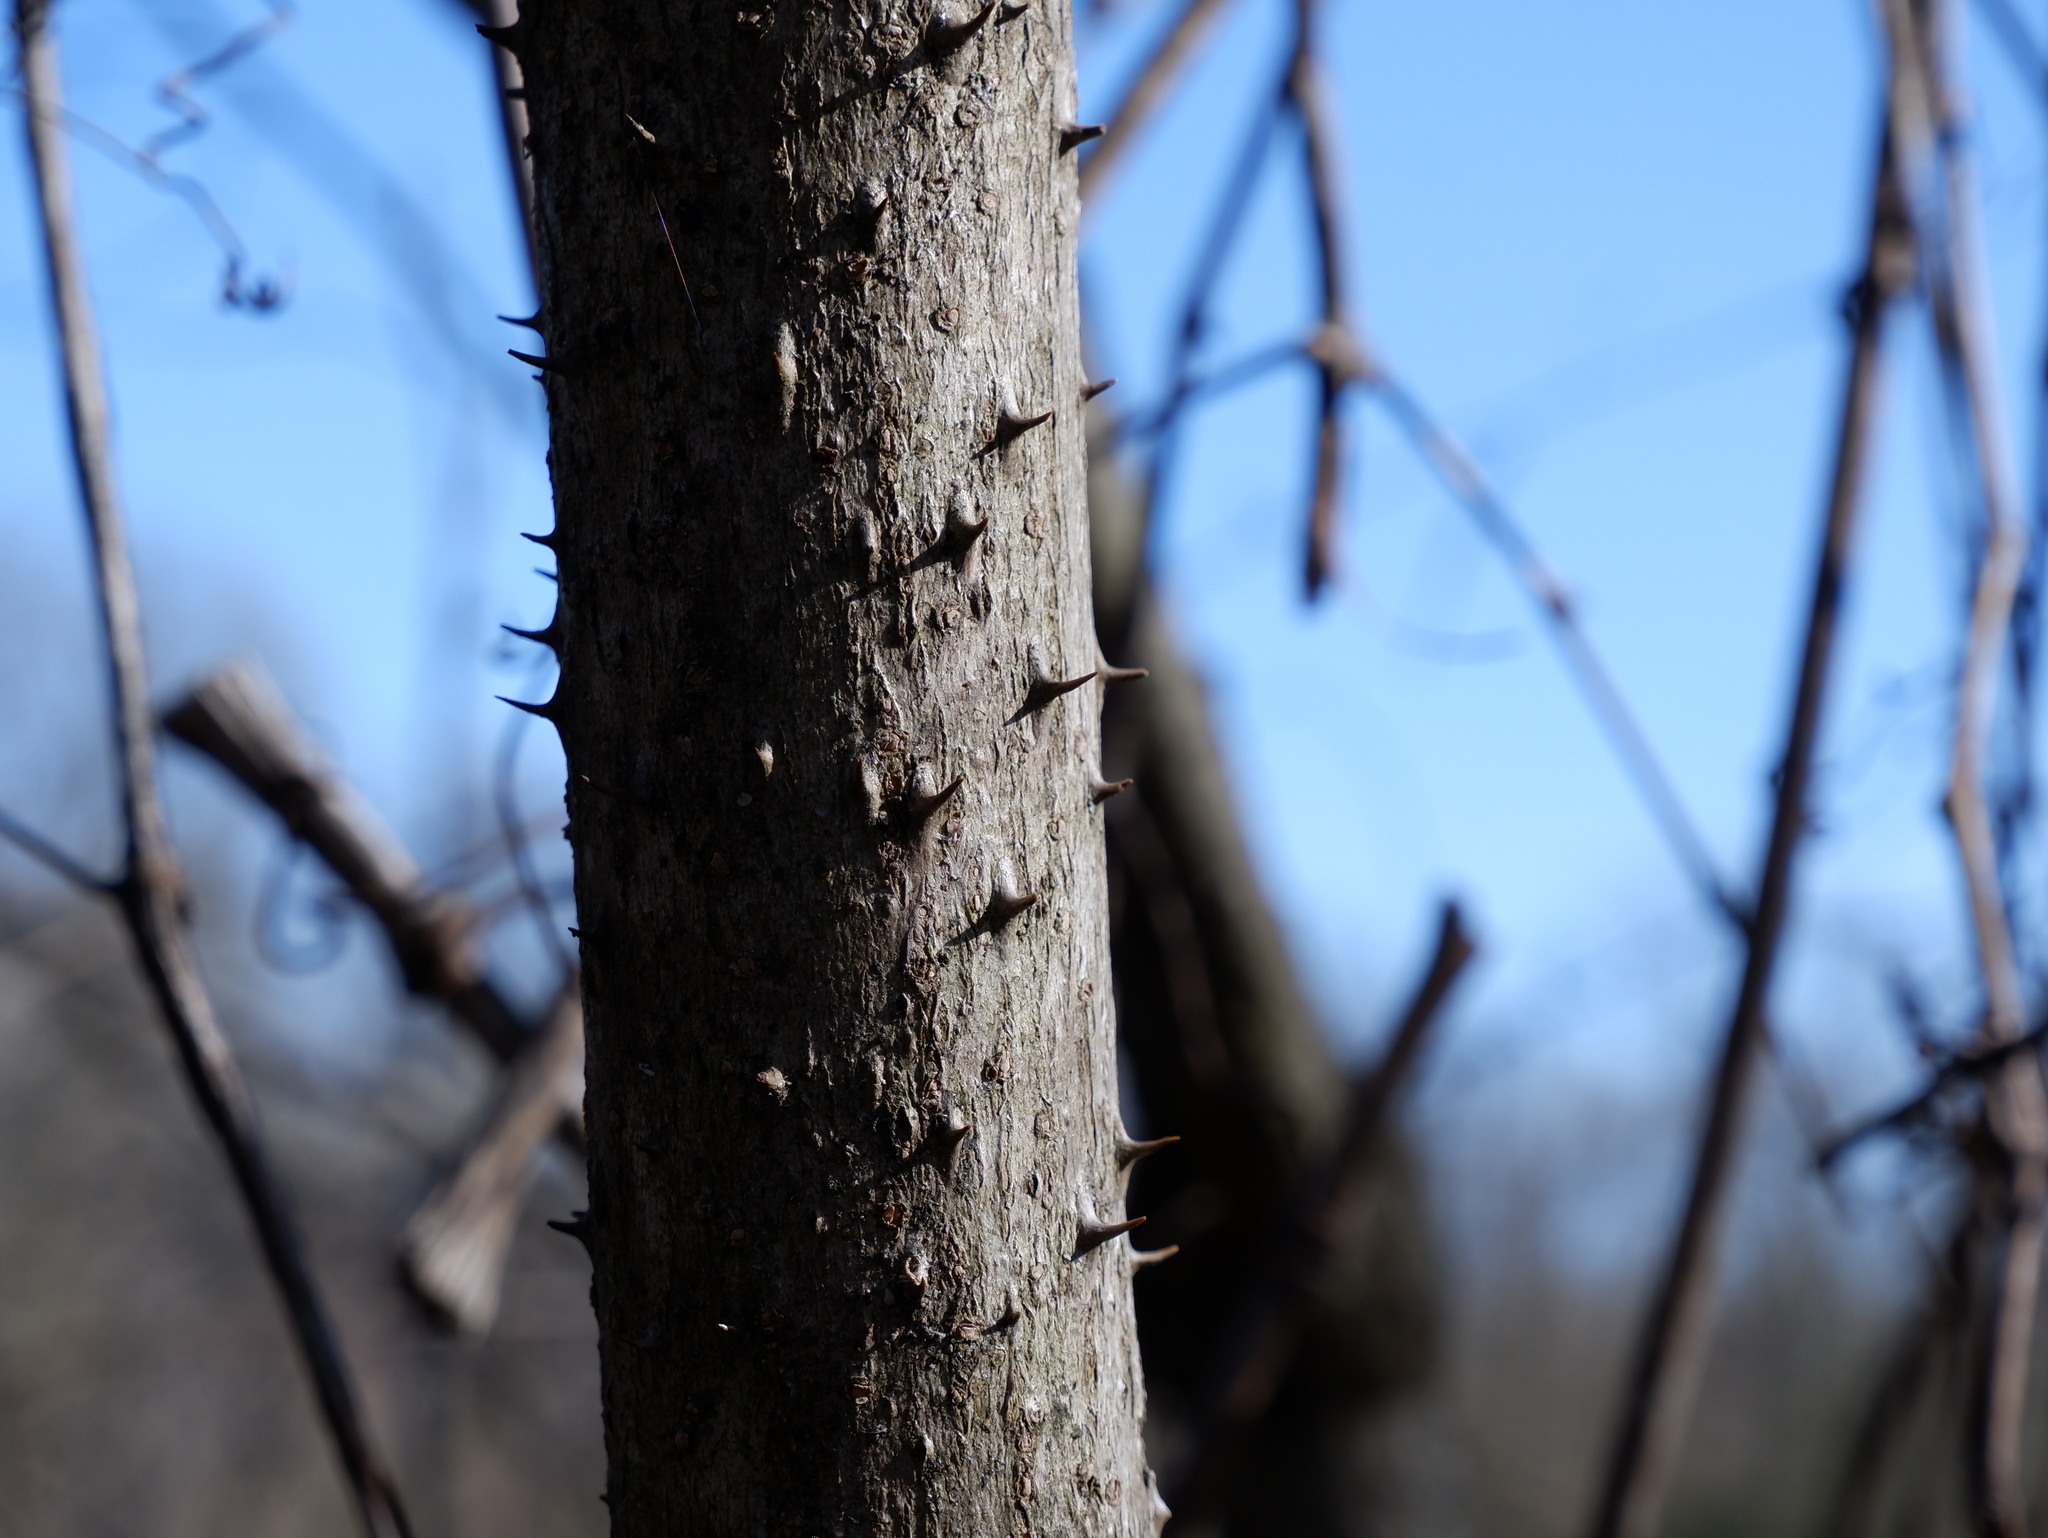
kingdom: Plantae
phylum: Tracheophyta
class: Magnoliopsida
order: Apiales
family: Araliaceae
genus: Aralia
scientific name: Aralia elata
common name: Japanese angelica-tree
